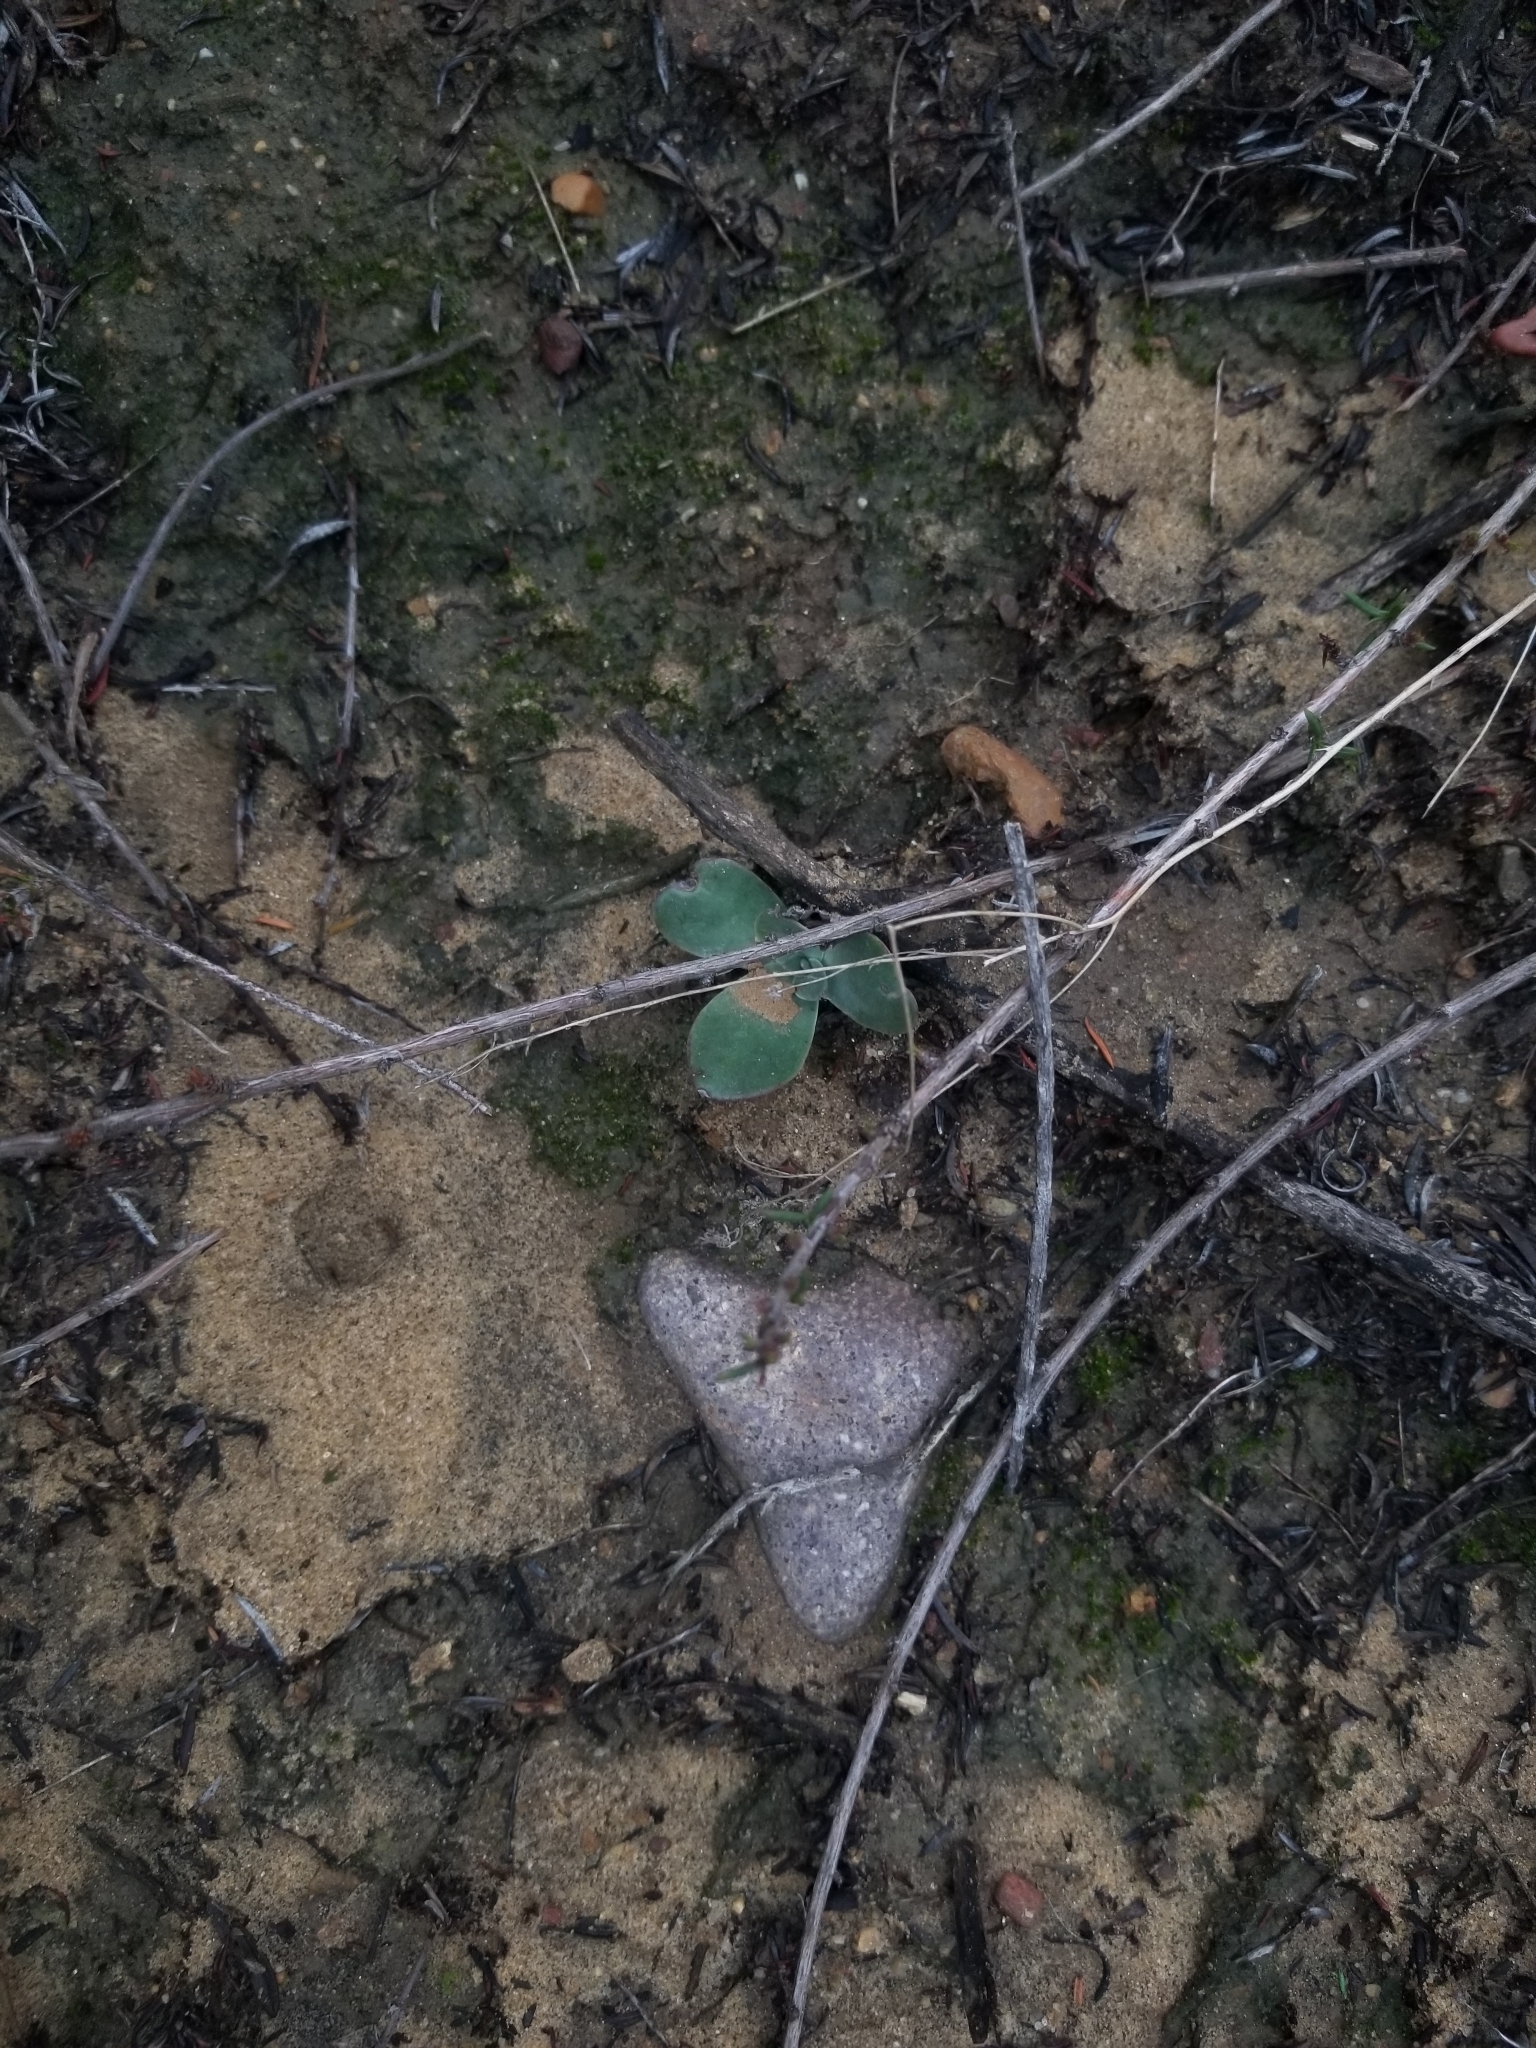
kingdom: Plantae
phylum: Tracheophyta
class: Magnoliopsida
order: Saxifragales
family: Crassulaceae
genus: Dudleya
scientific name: Dudleya pulverulenta
